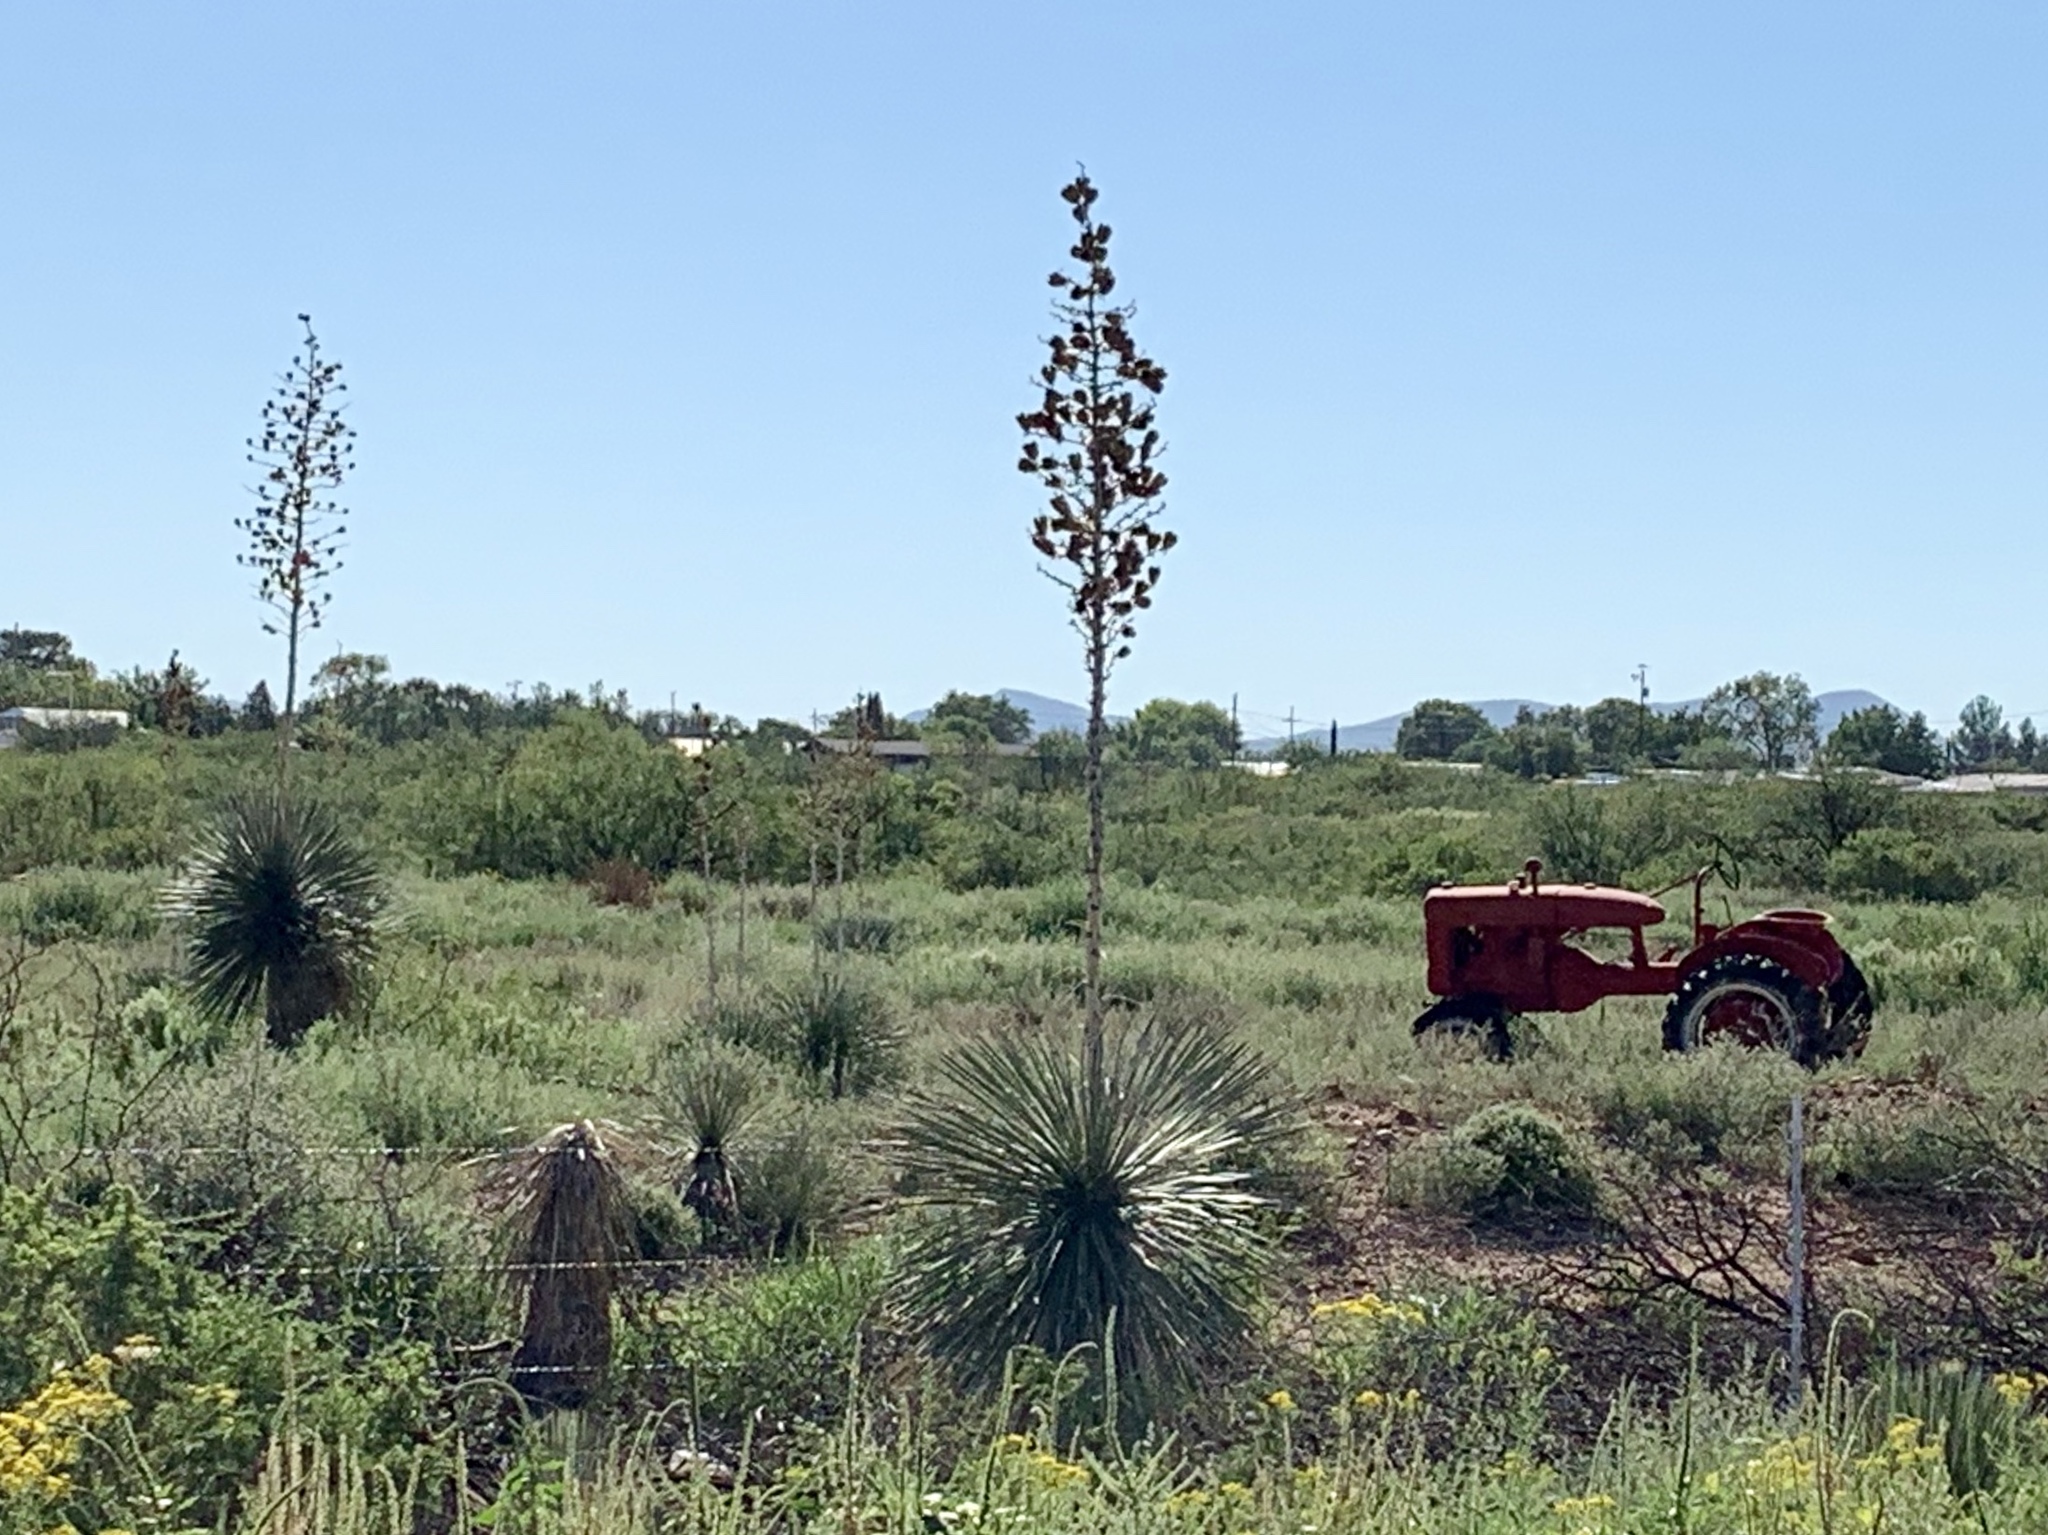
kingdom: Plantae
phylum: Tracheophyta
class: Liliopsida
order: Asparagales
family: Asparagaceae
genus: Yucca
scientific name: Yucca elata
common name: Palmella
